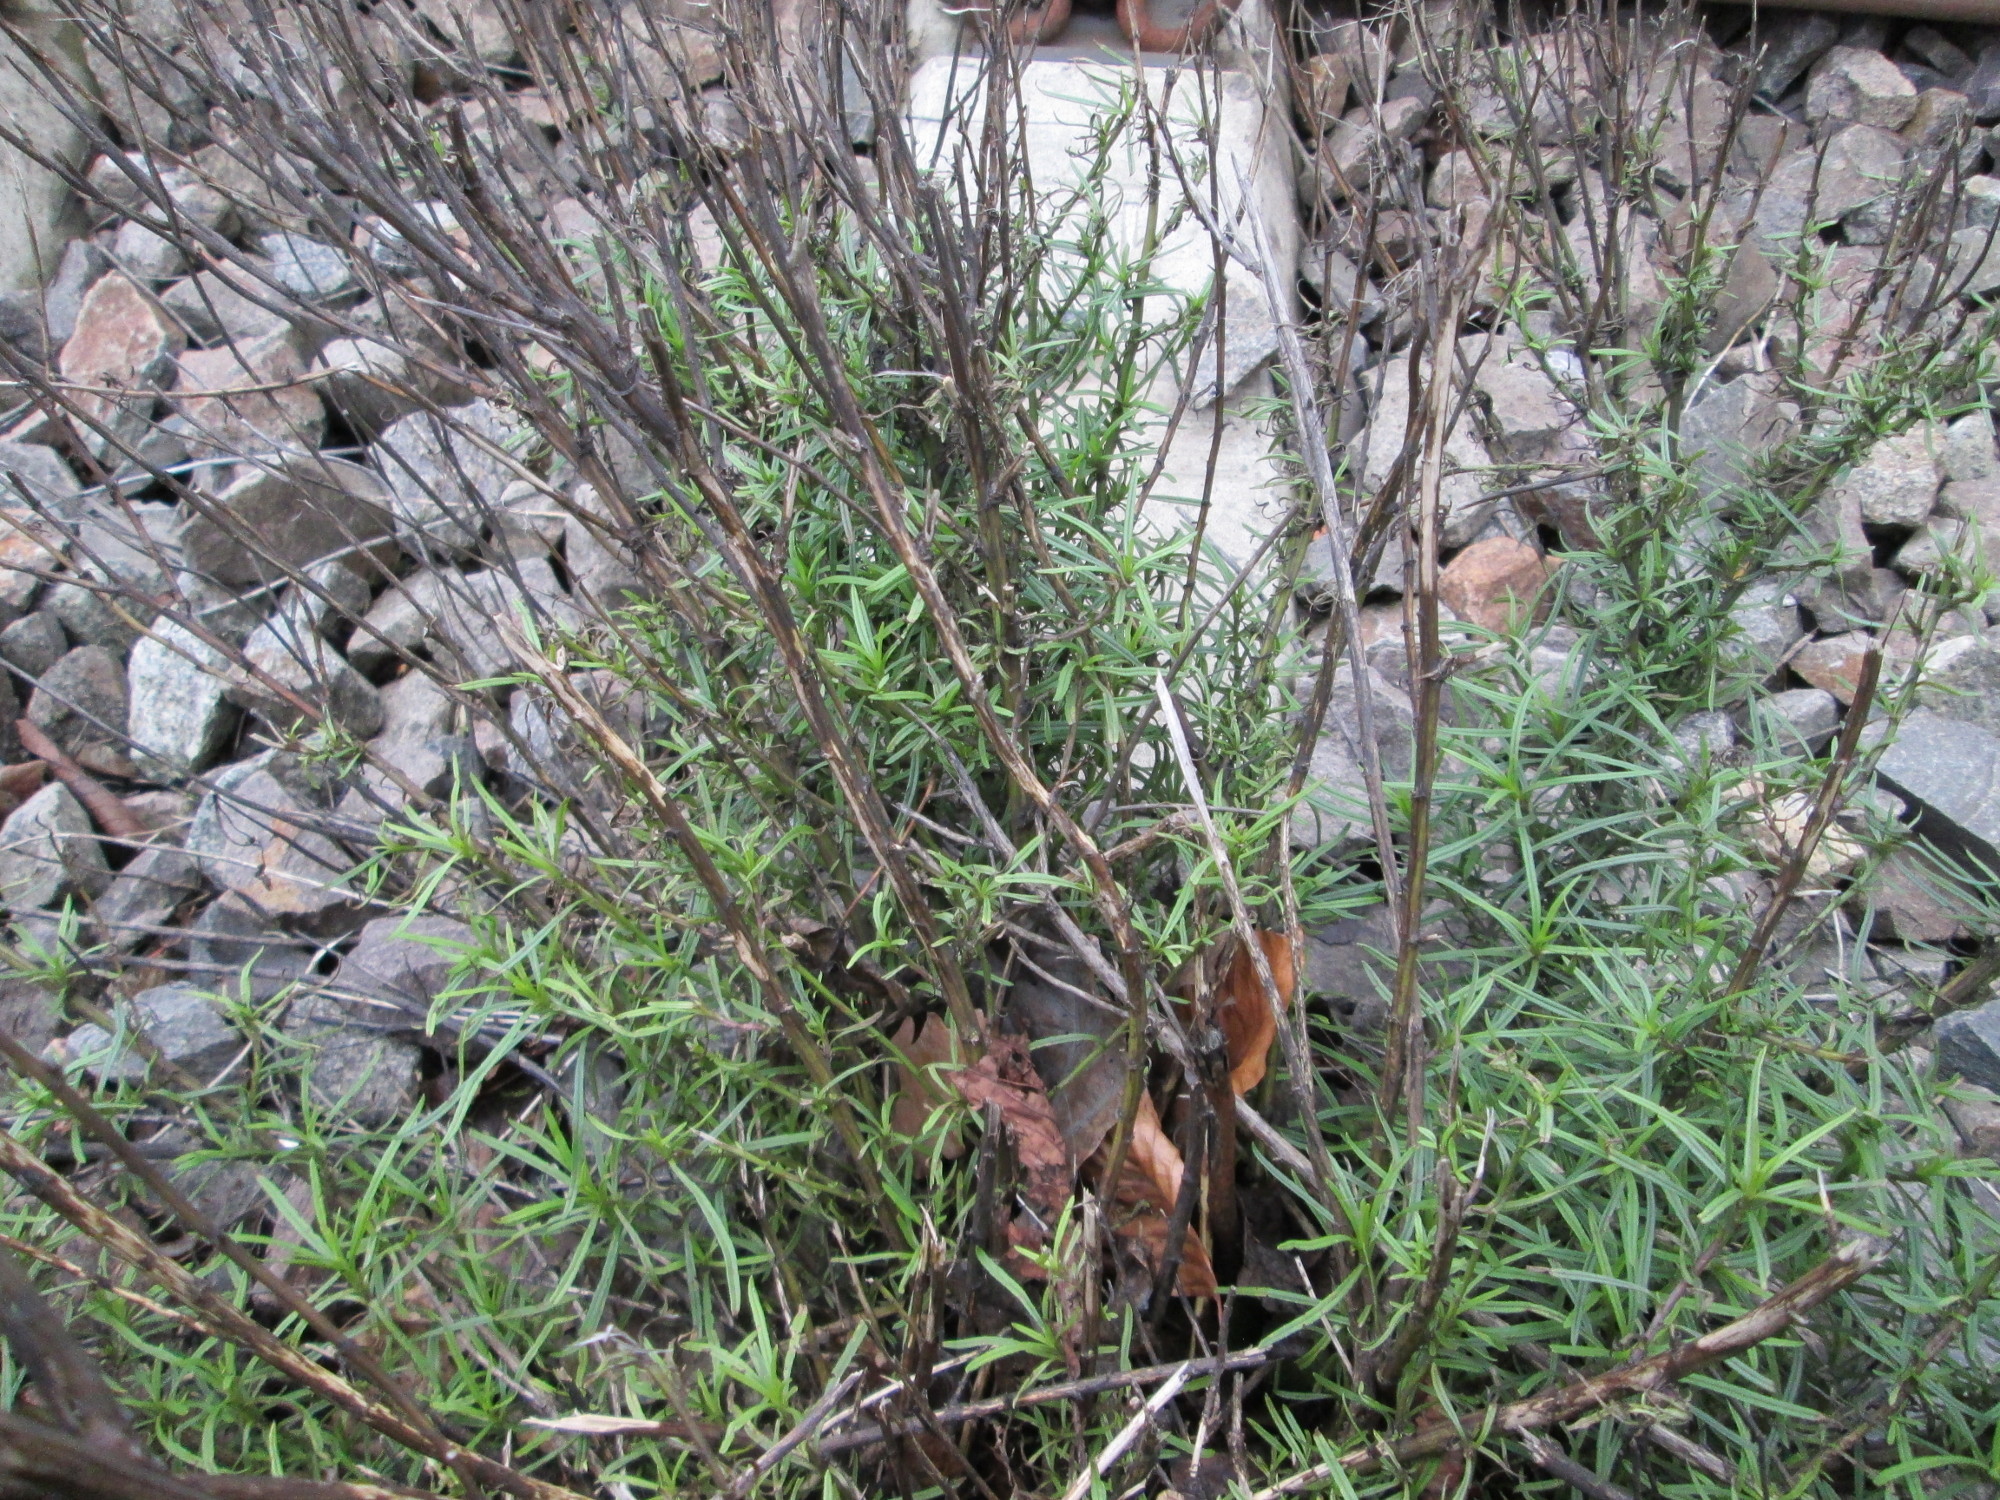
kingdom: Plantae
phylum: Tracheophyta
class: Magnoliopsida
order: Asterales
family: Asteraceae
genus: Senecio
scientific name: Senecio inaequidens
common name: Narrow-leaved ragwort
